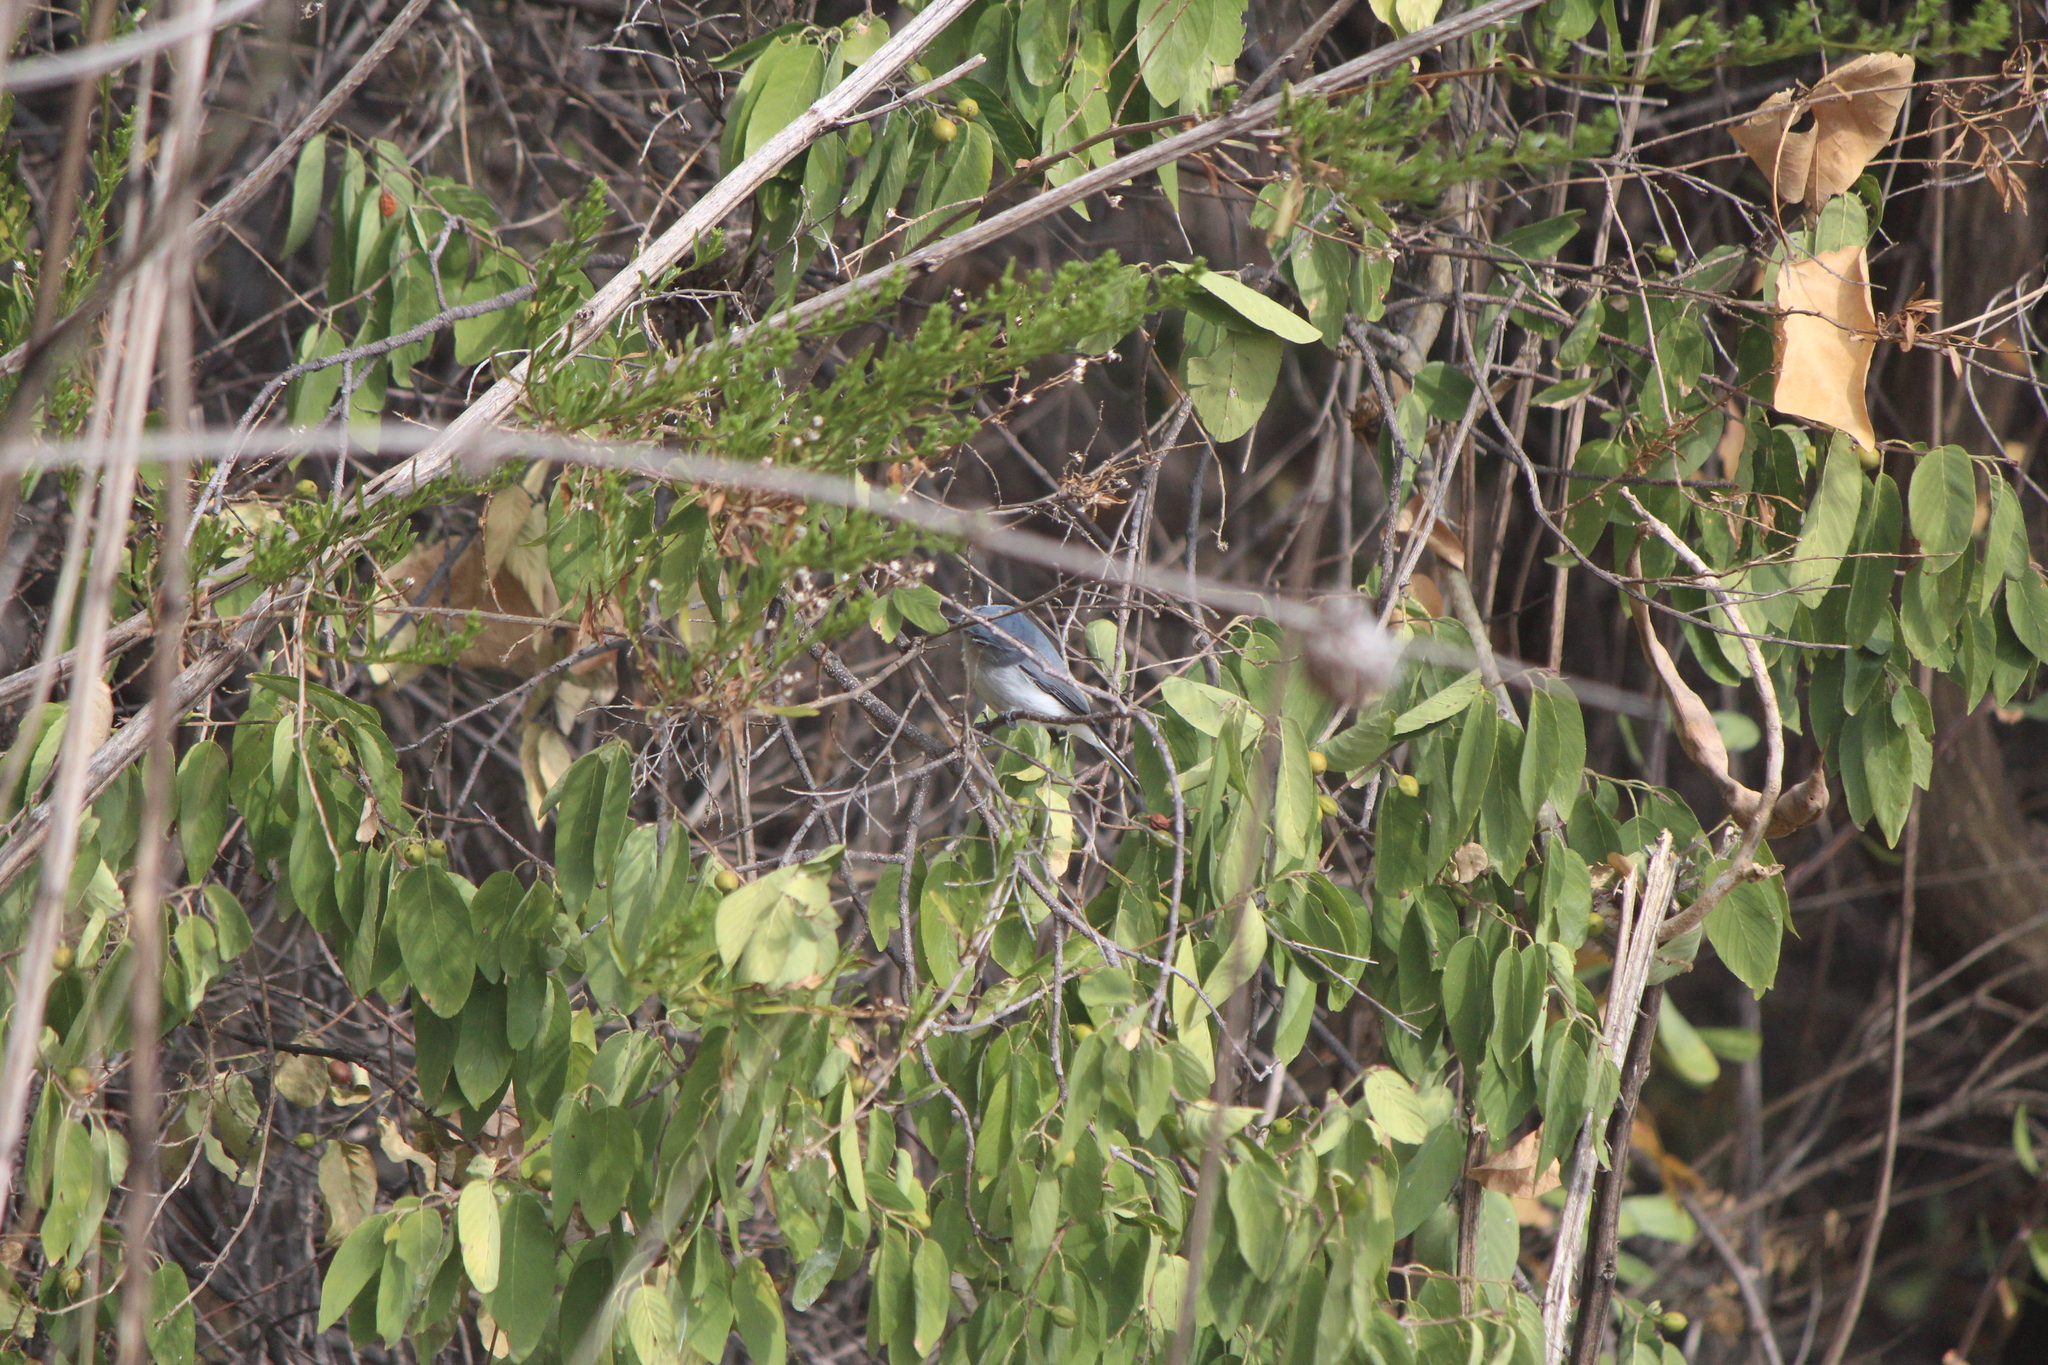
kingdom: Animalia
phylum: Chordata
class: Aves
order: Passeriformes
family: Polioptilidae
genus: Polioptila
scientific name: Polioptila caerulea
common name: Blue-gray gnatcatcher
